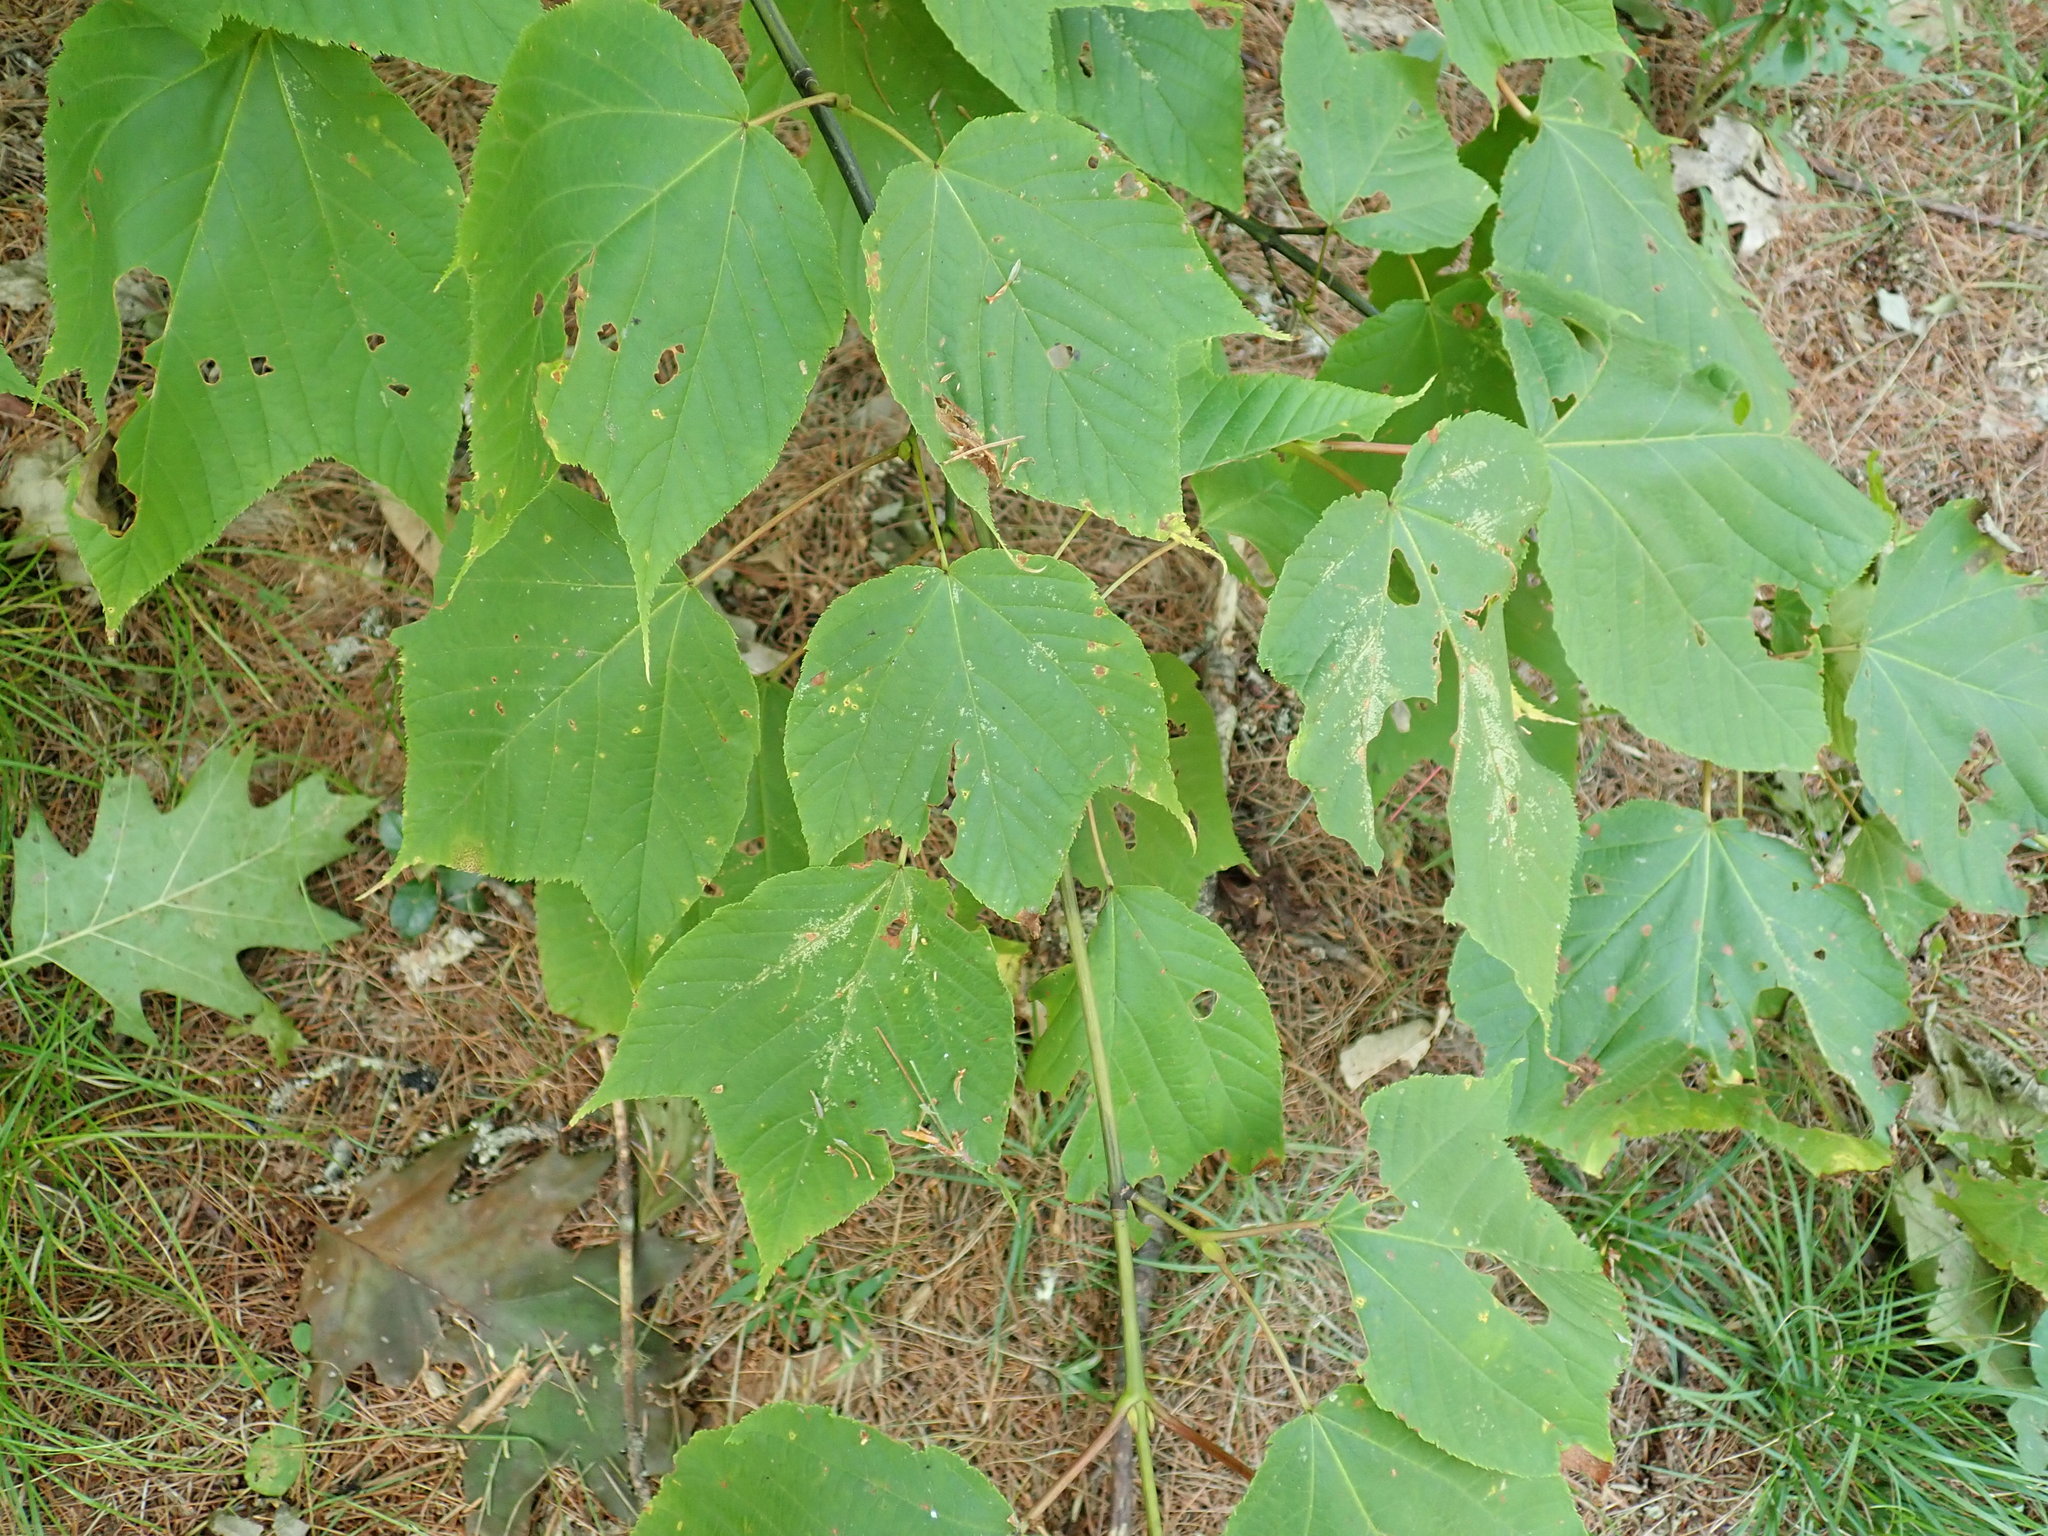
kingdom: Plantae
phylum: Tracheophyta
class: Magnoliopsida
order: Sapindales
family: Sapindaceae
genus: Acer
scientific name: Acer pensylvanicum
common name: Moosewood
